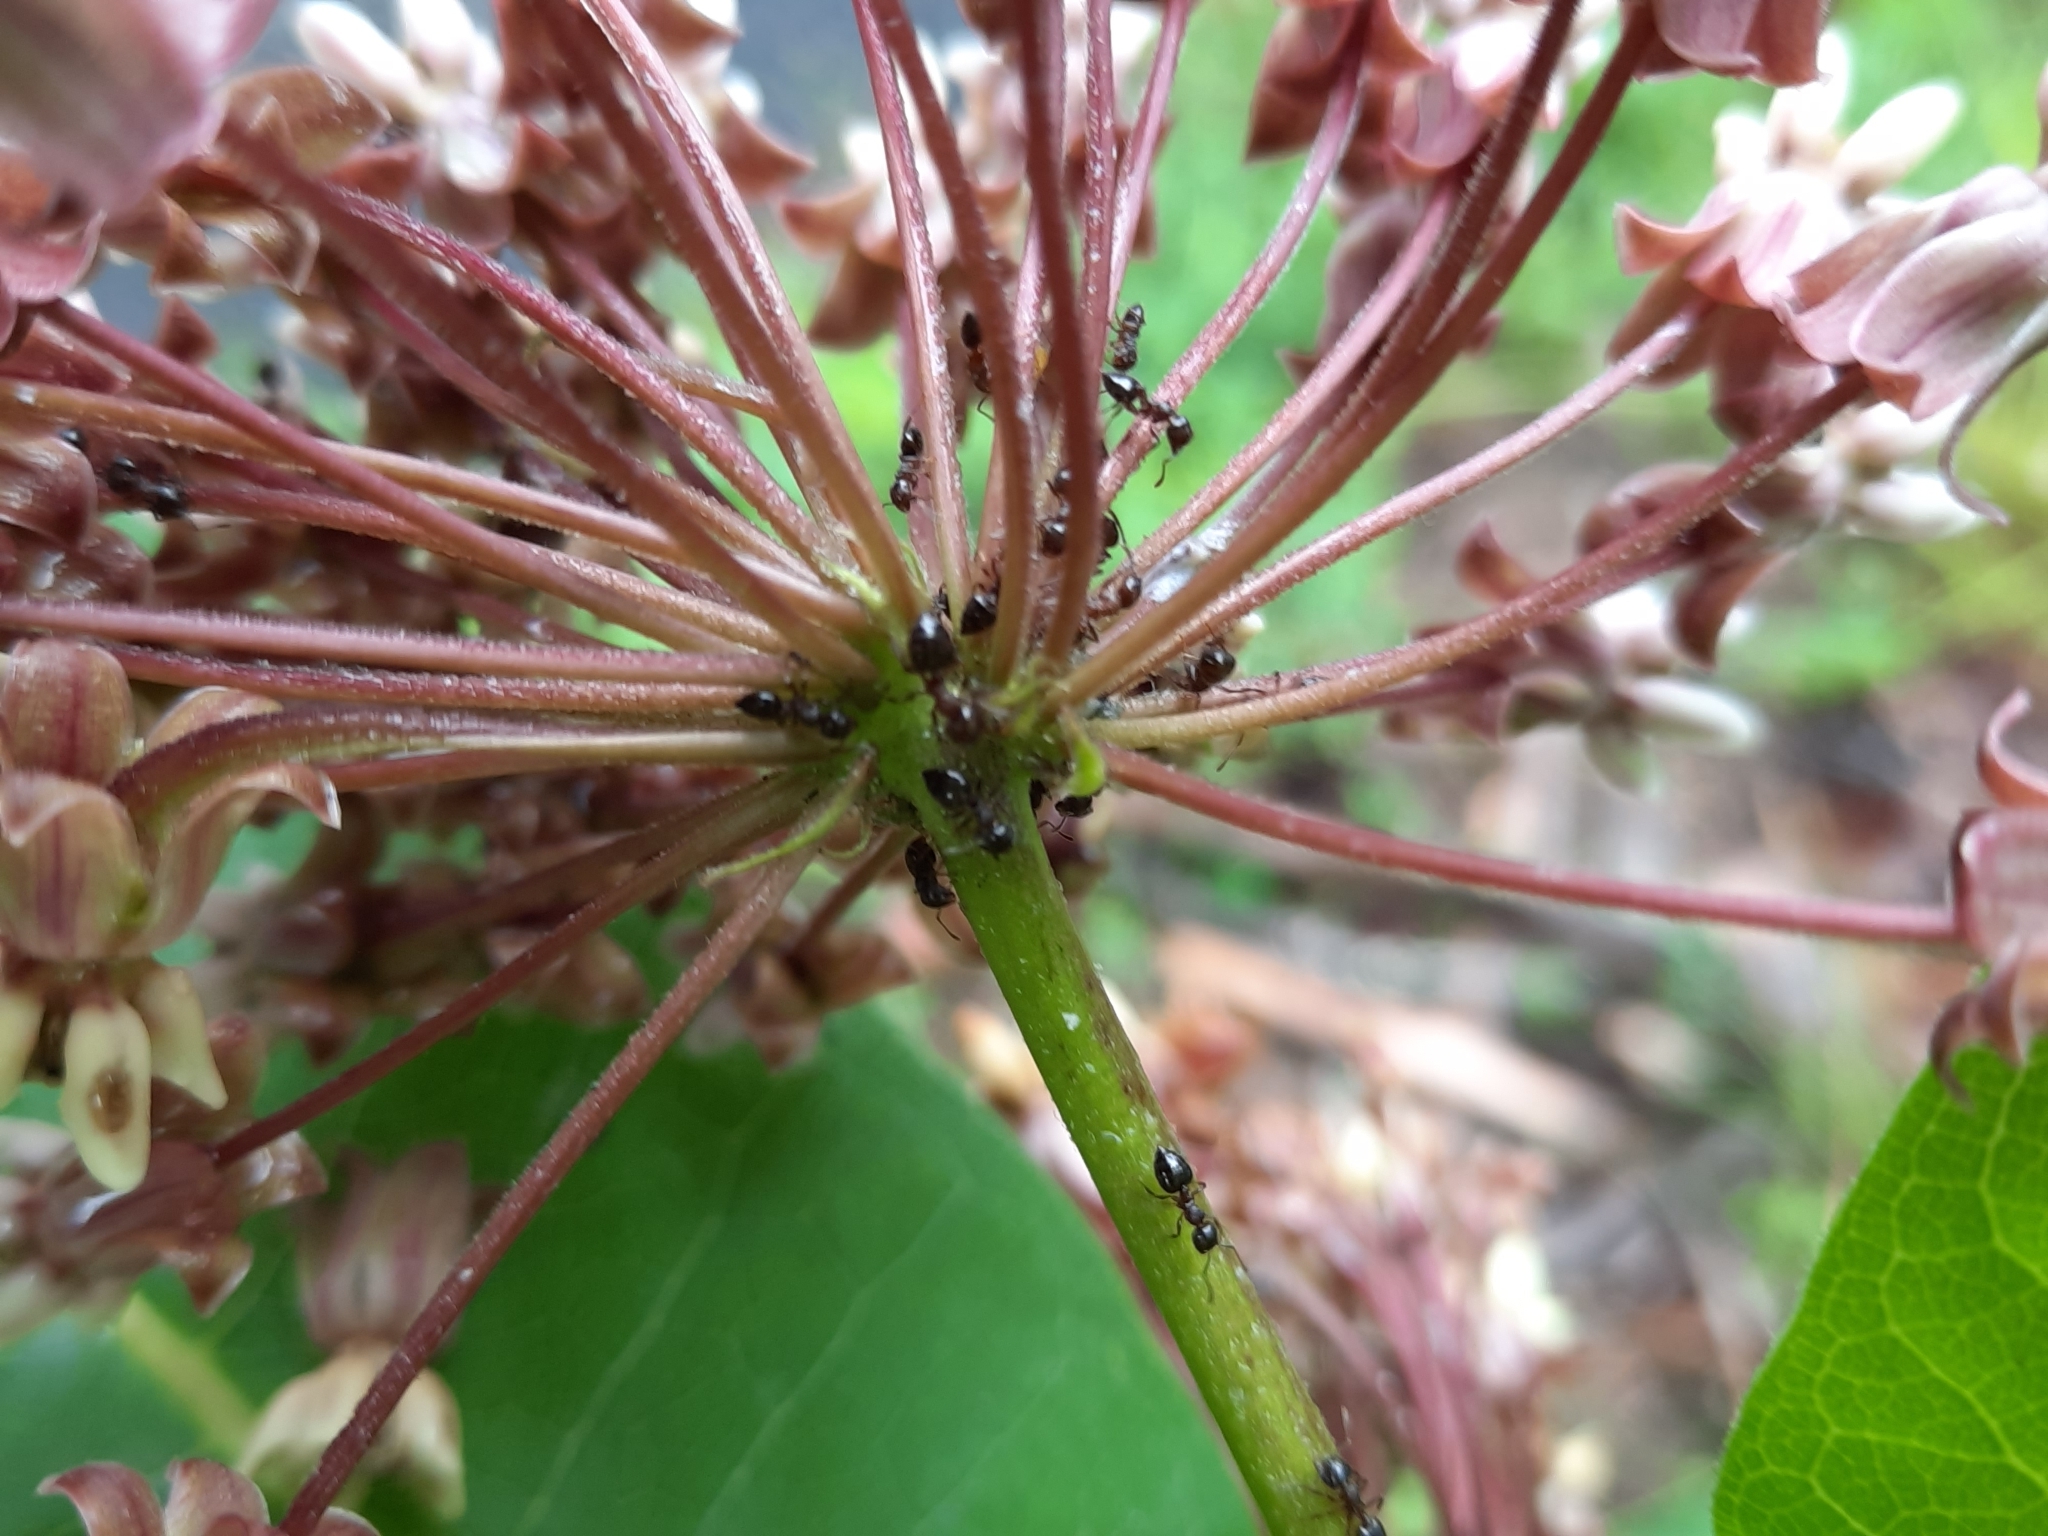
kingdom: Animalia
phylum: Arthropoda
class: Insecta
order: Hymenoptera
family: Formicidae
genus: Crematogaster
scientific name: Crematogaster
